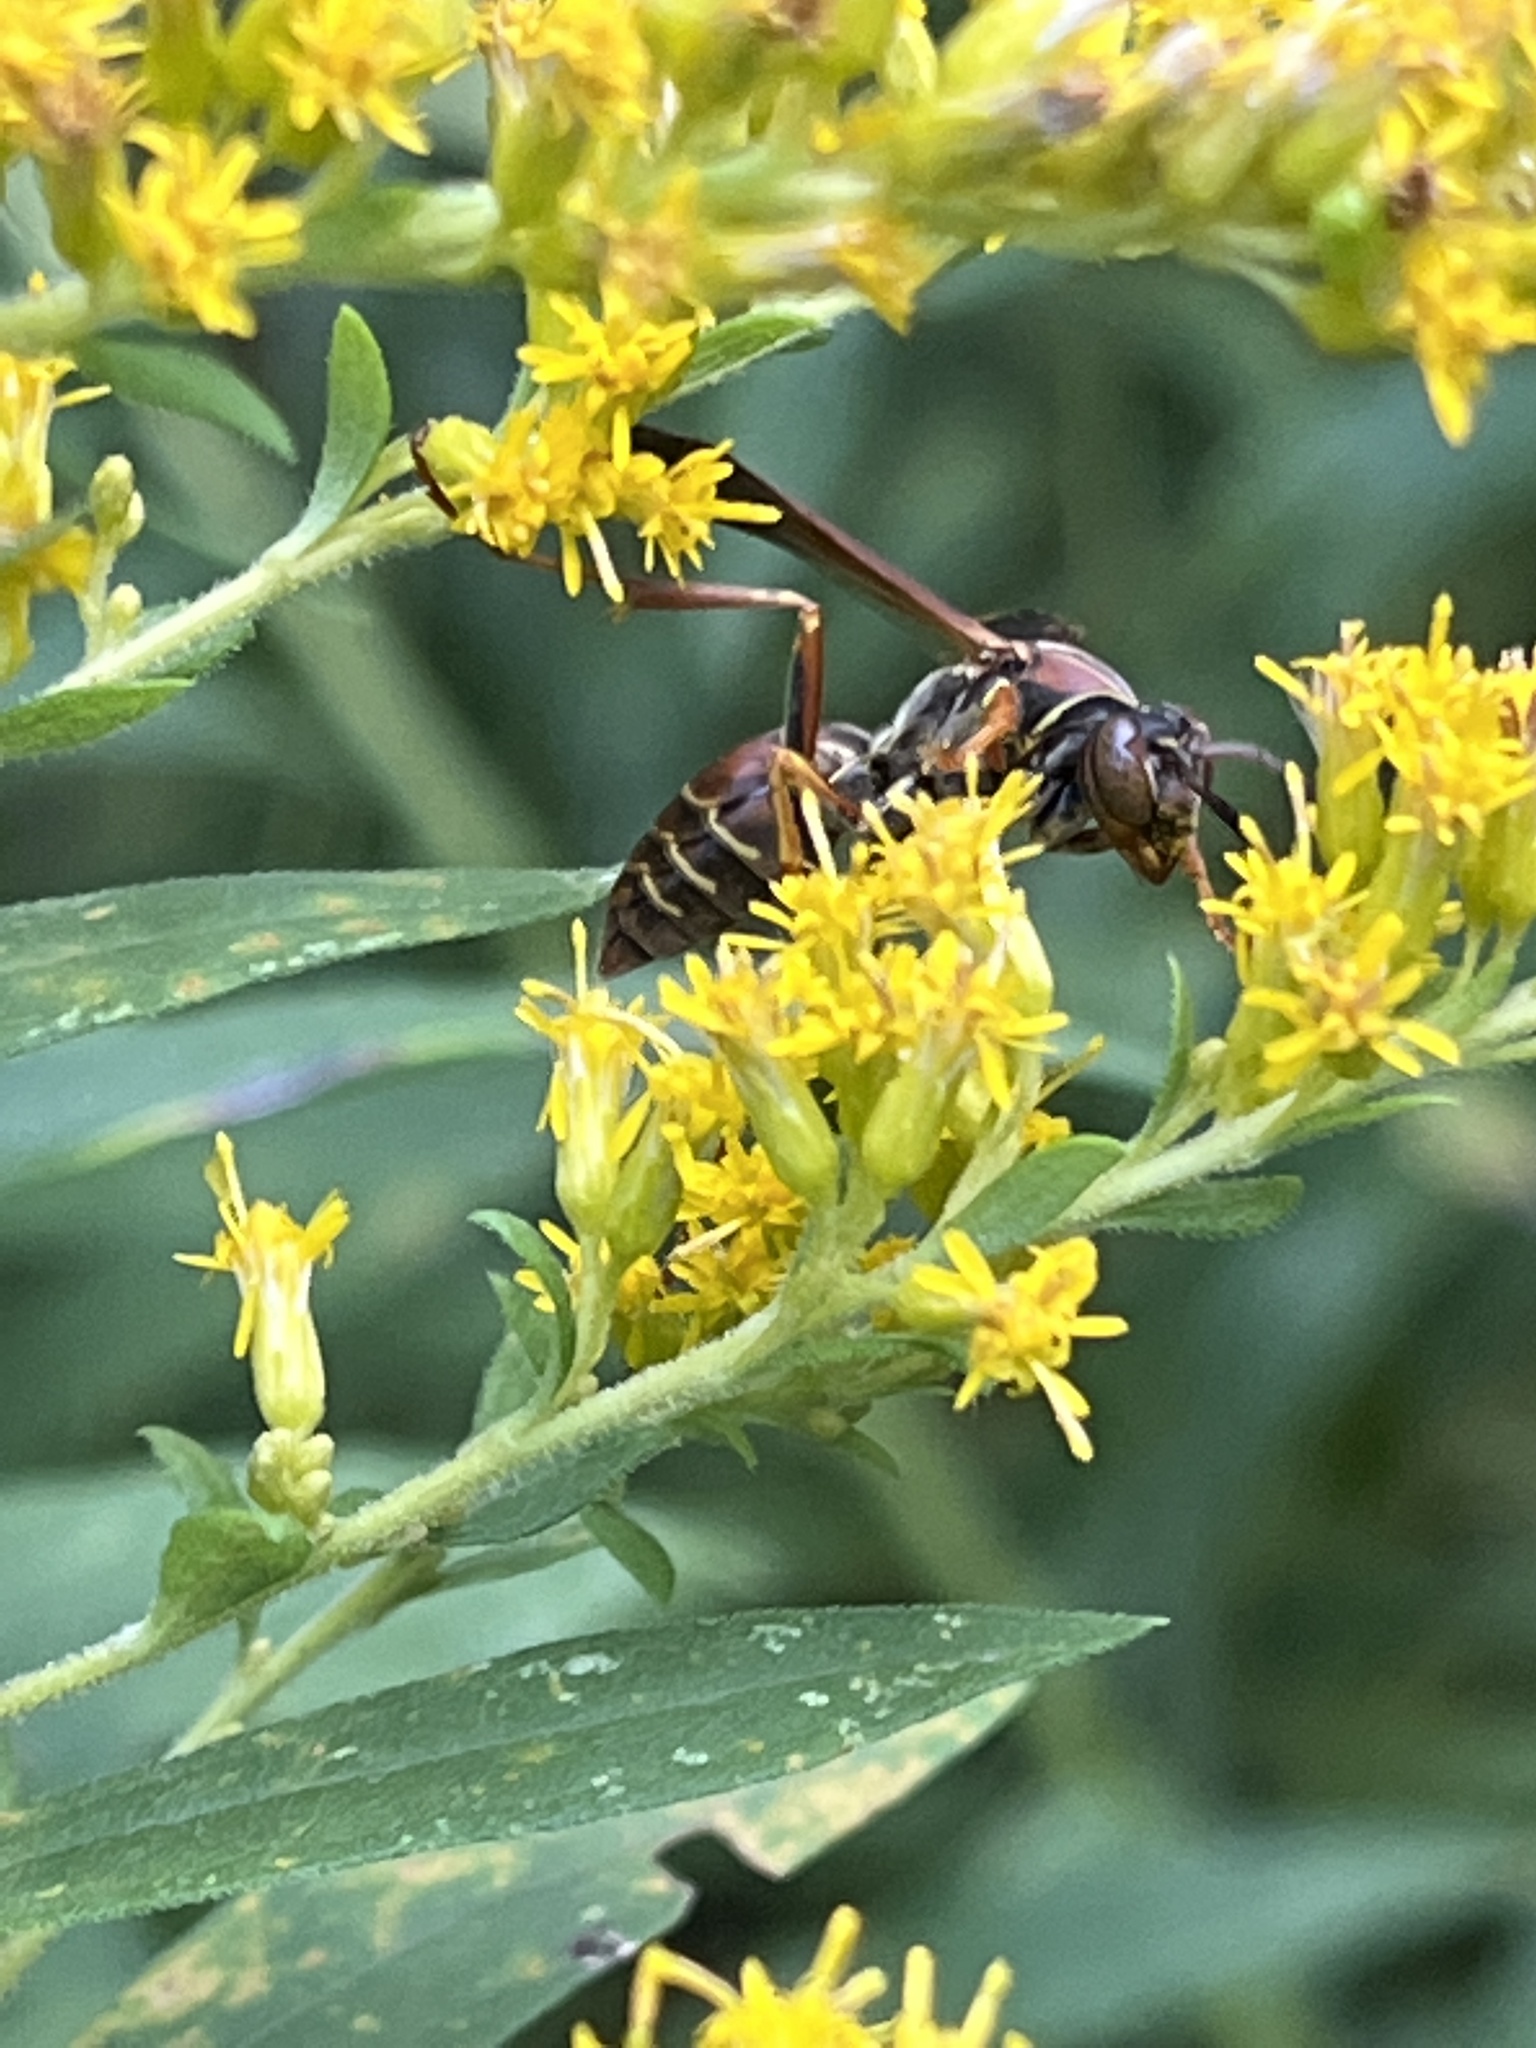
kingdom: Animalia
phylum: Arthropoda
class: Insecta
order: Hymenoptera
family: Eumenidae
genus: Polistes
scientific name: Polistes fuscatus
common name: Dark paper wasp
